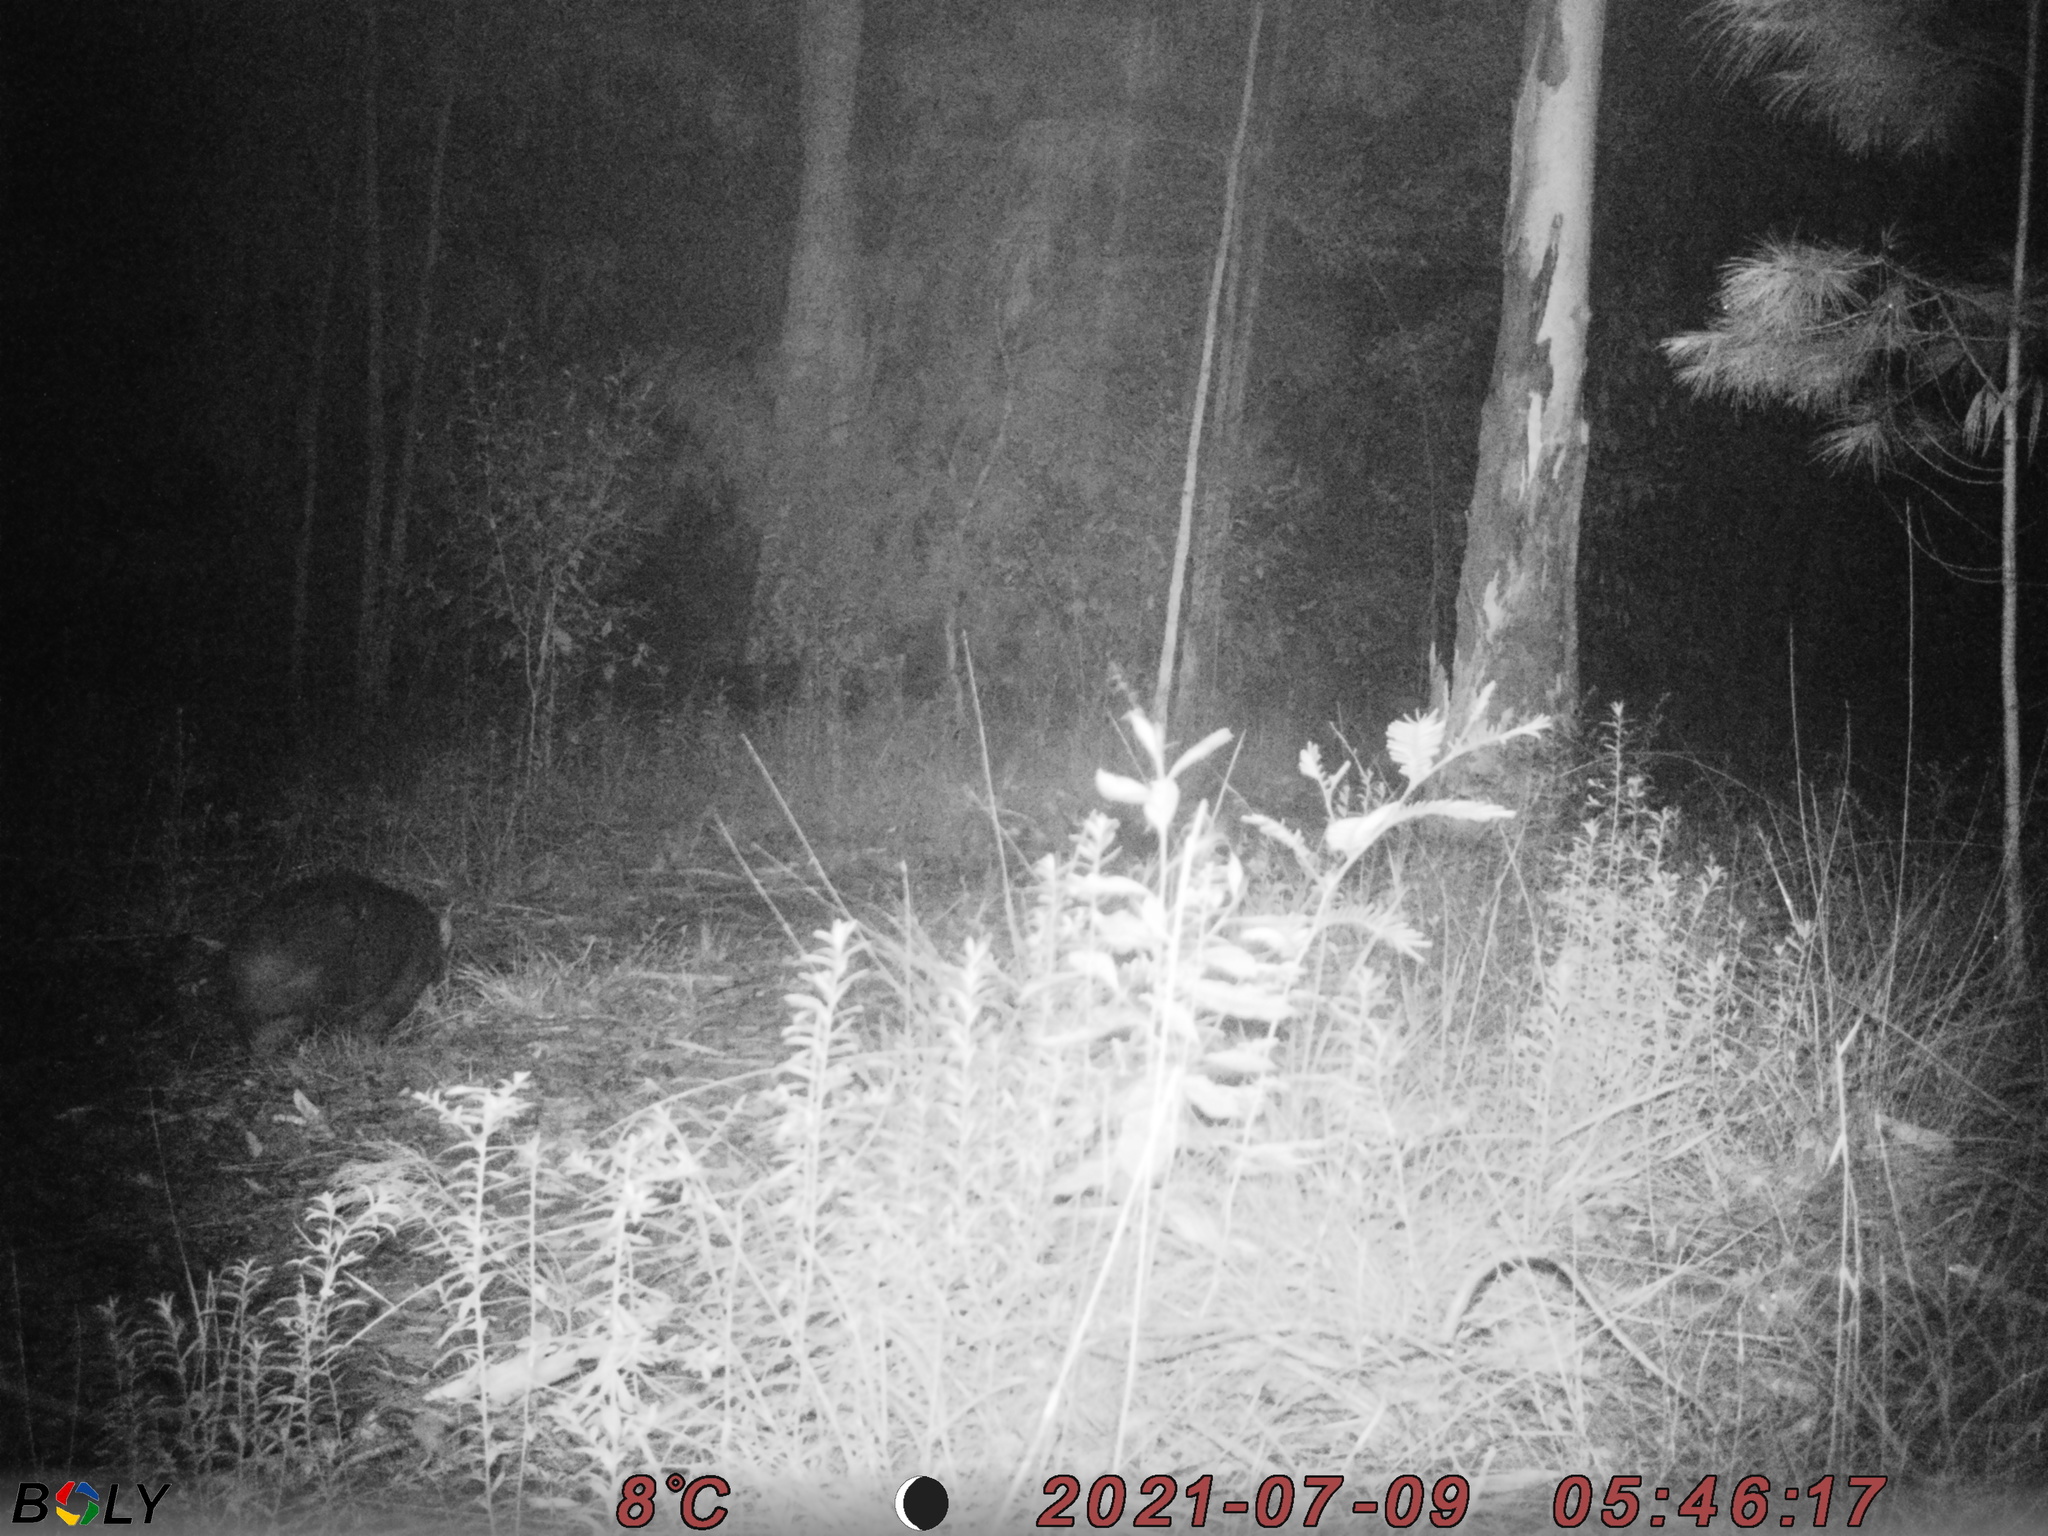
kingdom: Animalia
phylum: Chordata
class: Mammalia
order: Diprotodontia
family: Vombatidae
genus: Vombatus
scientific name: Vombatus ursinus
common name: Common wombat
